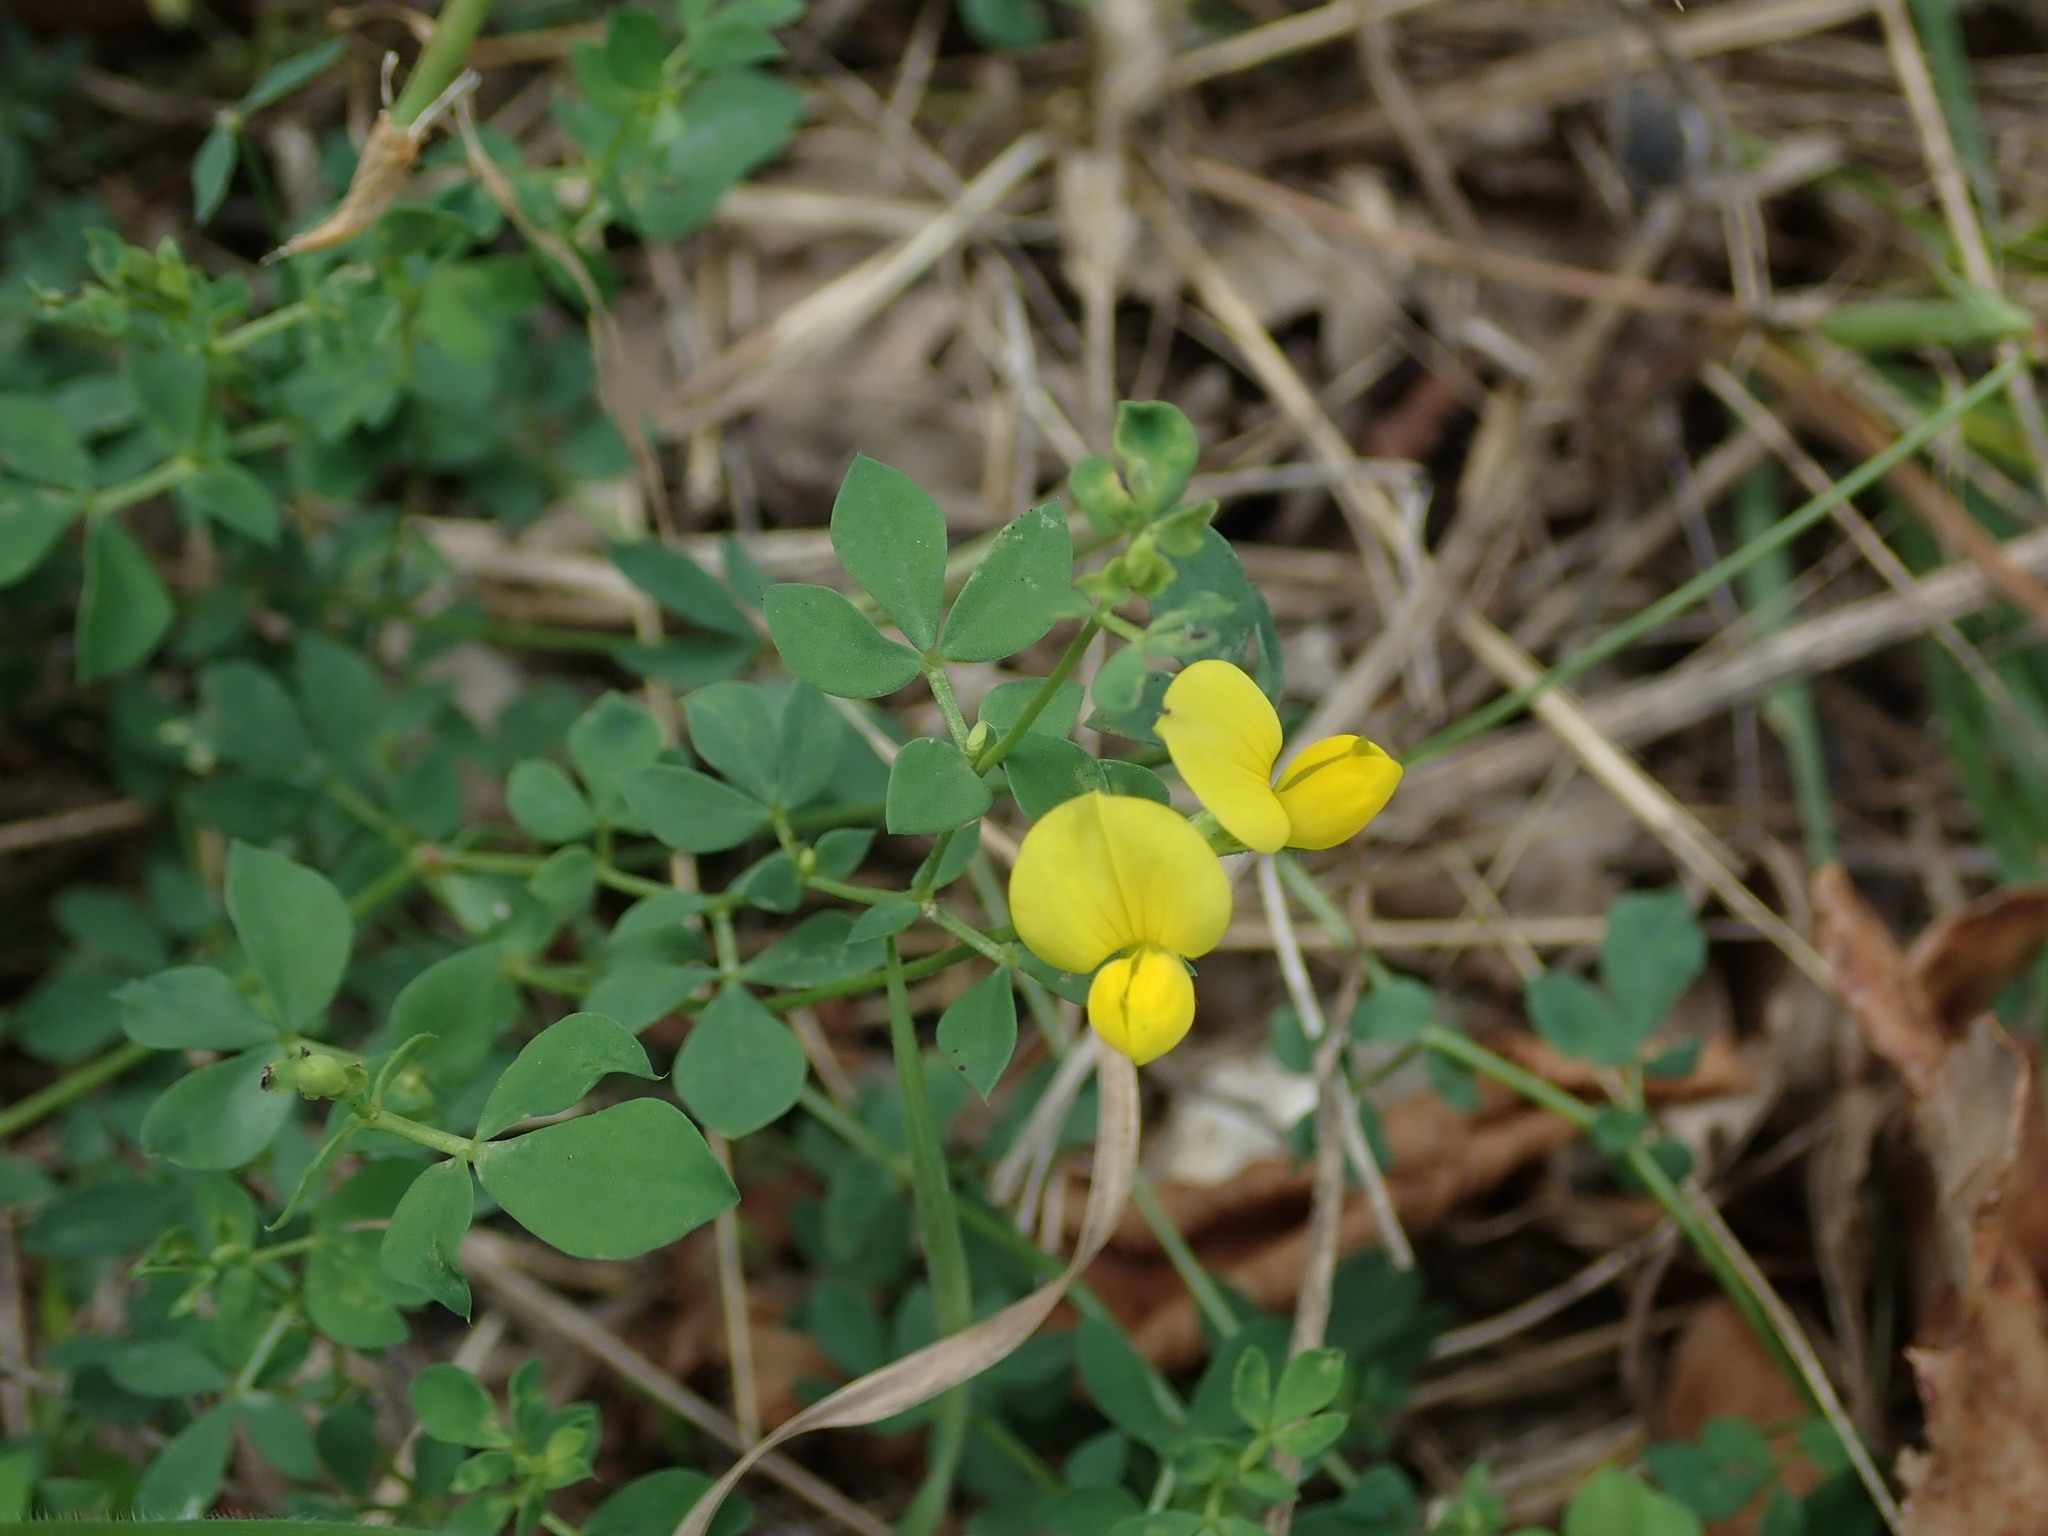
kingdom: Plantae
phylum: Tracheophyta
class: Magnoliopsida
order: Fabales
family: Fabaceae
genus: Lotus
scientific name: Lotus corniculatus
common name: Common bird's-foot-trefoil
